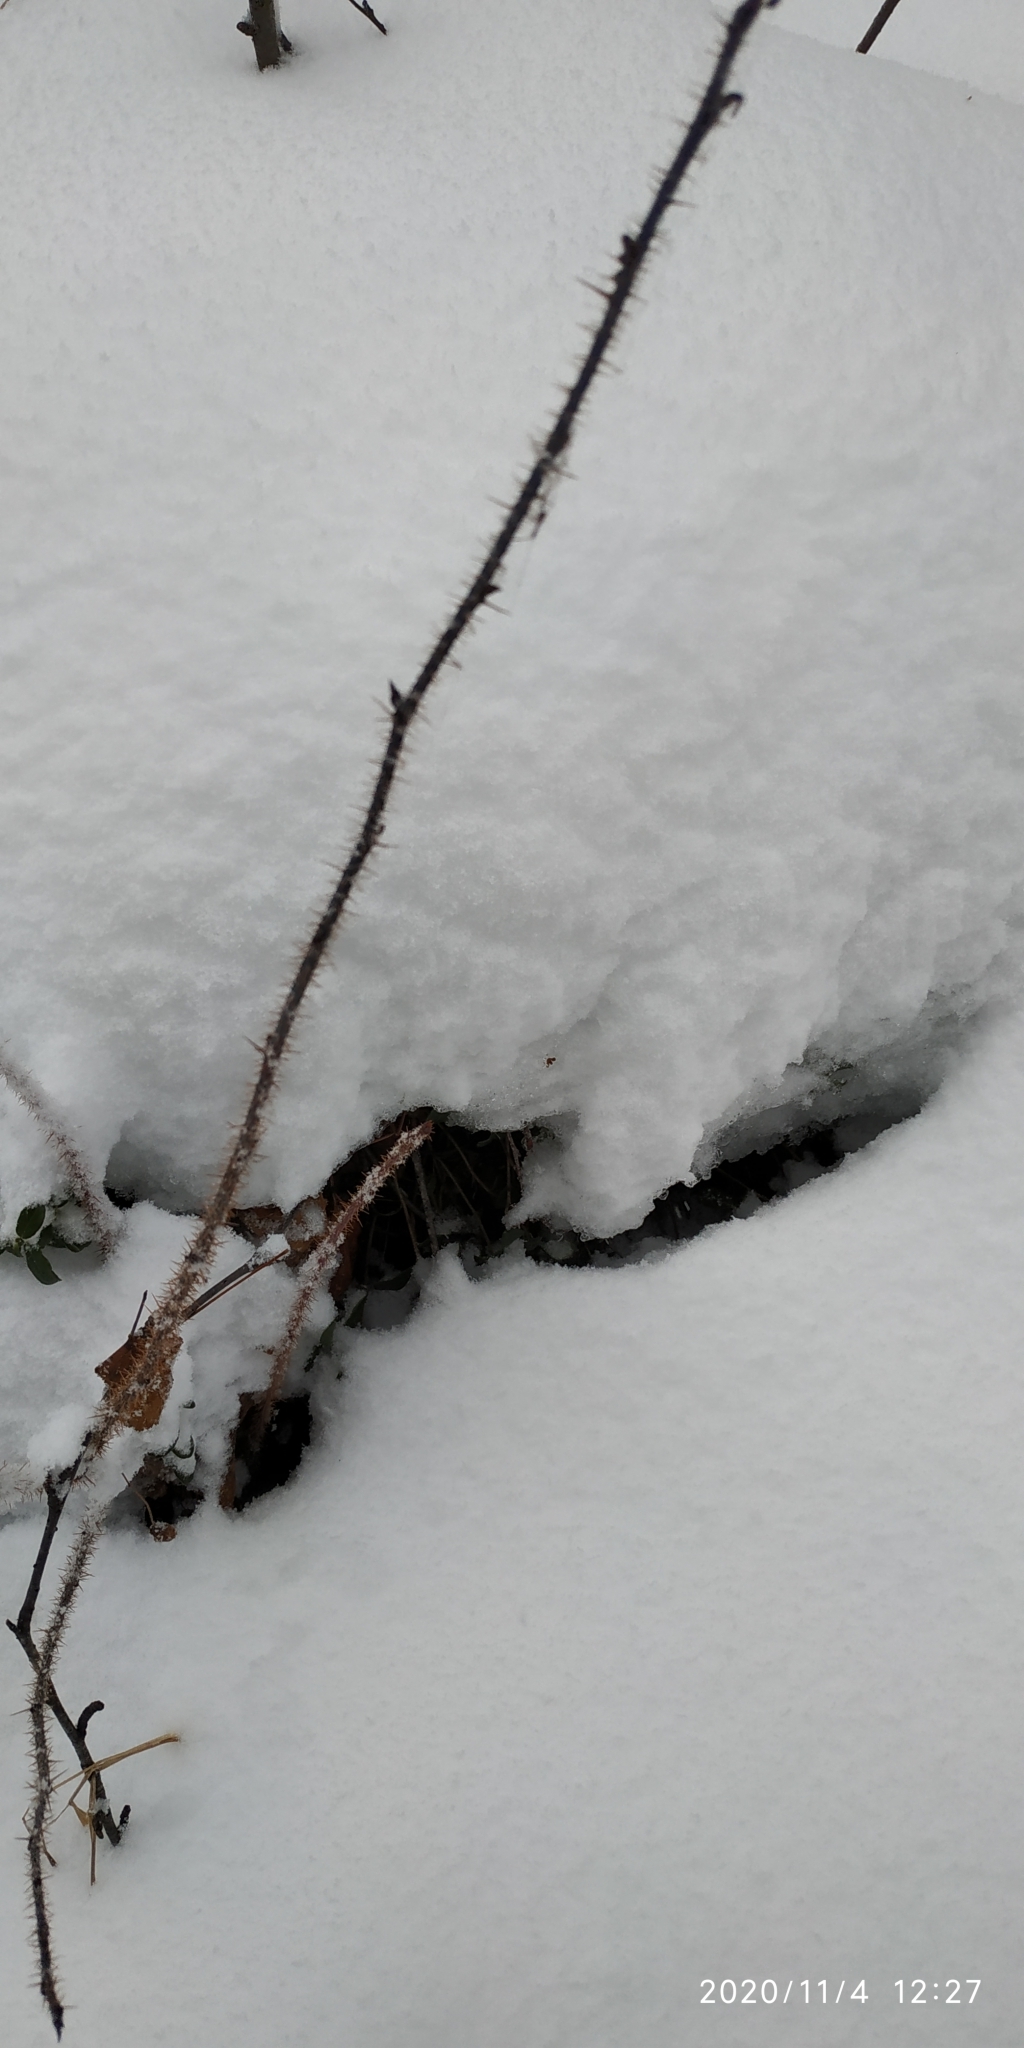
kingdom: Plantae
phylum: Tracheophyta
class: Magnoliopsida
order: Rosales
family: Rosaceae
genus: Rosa
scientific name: Rosa acicularis
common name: Prickly rose
